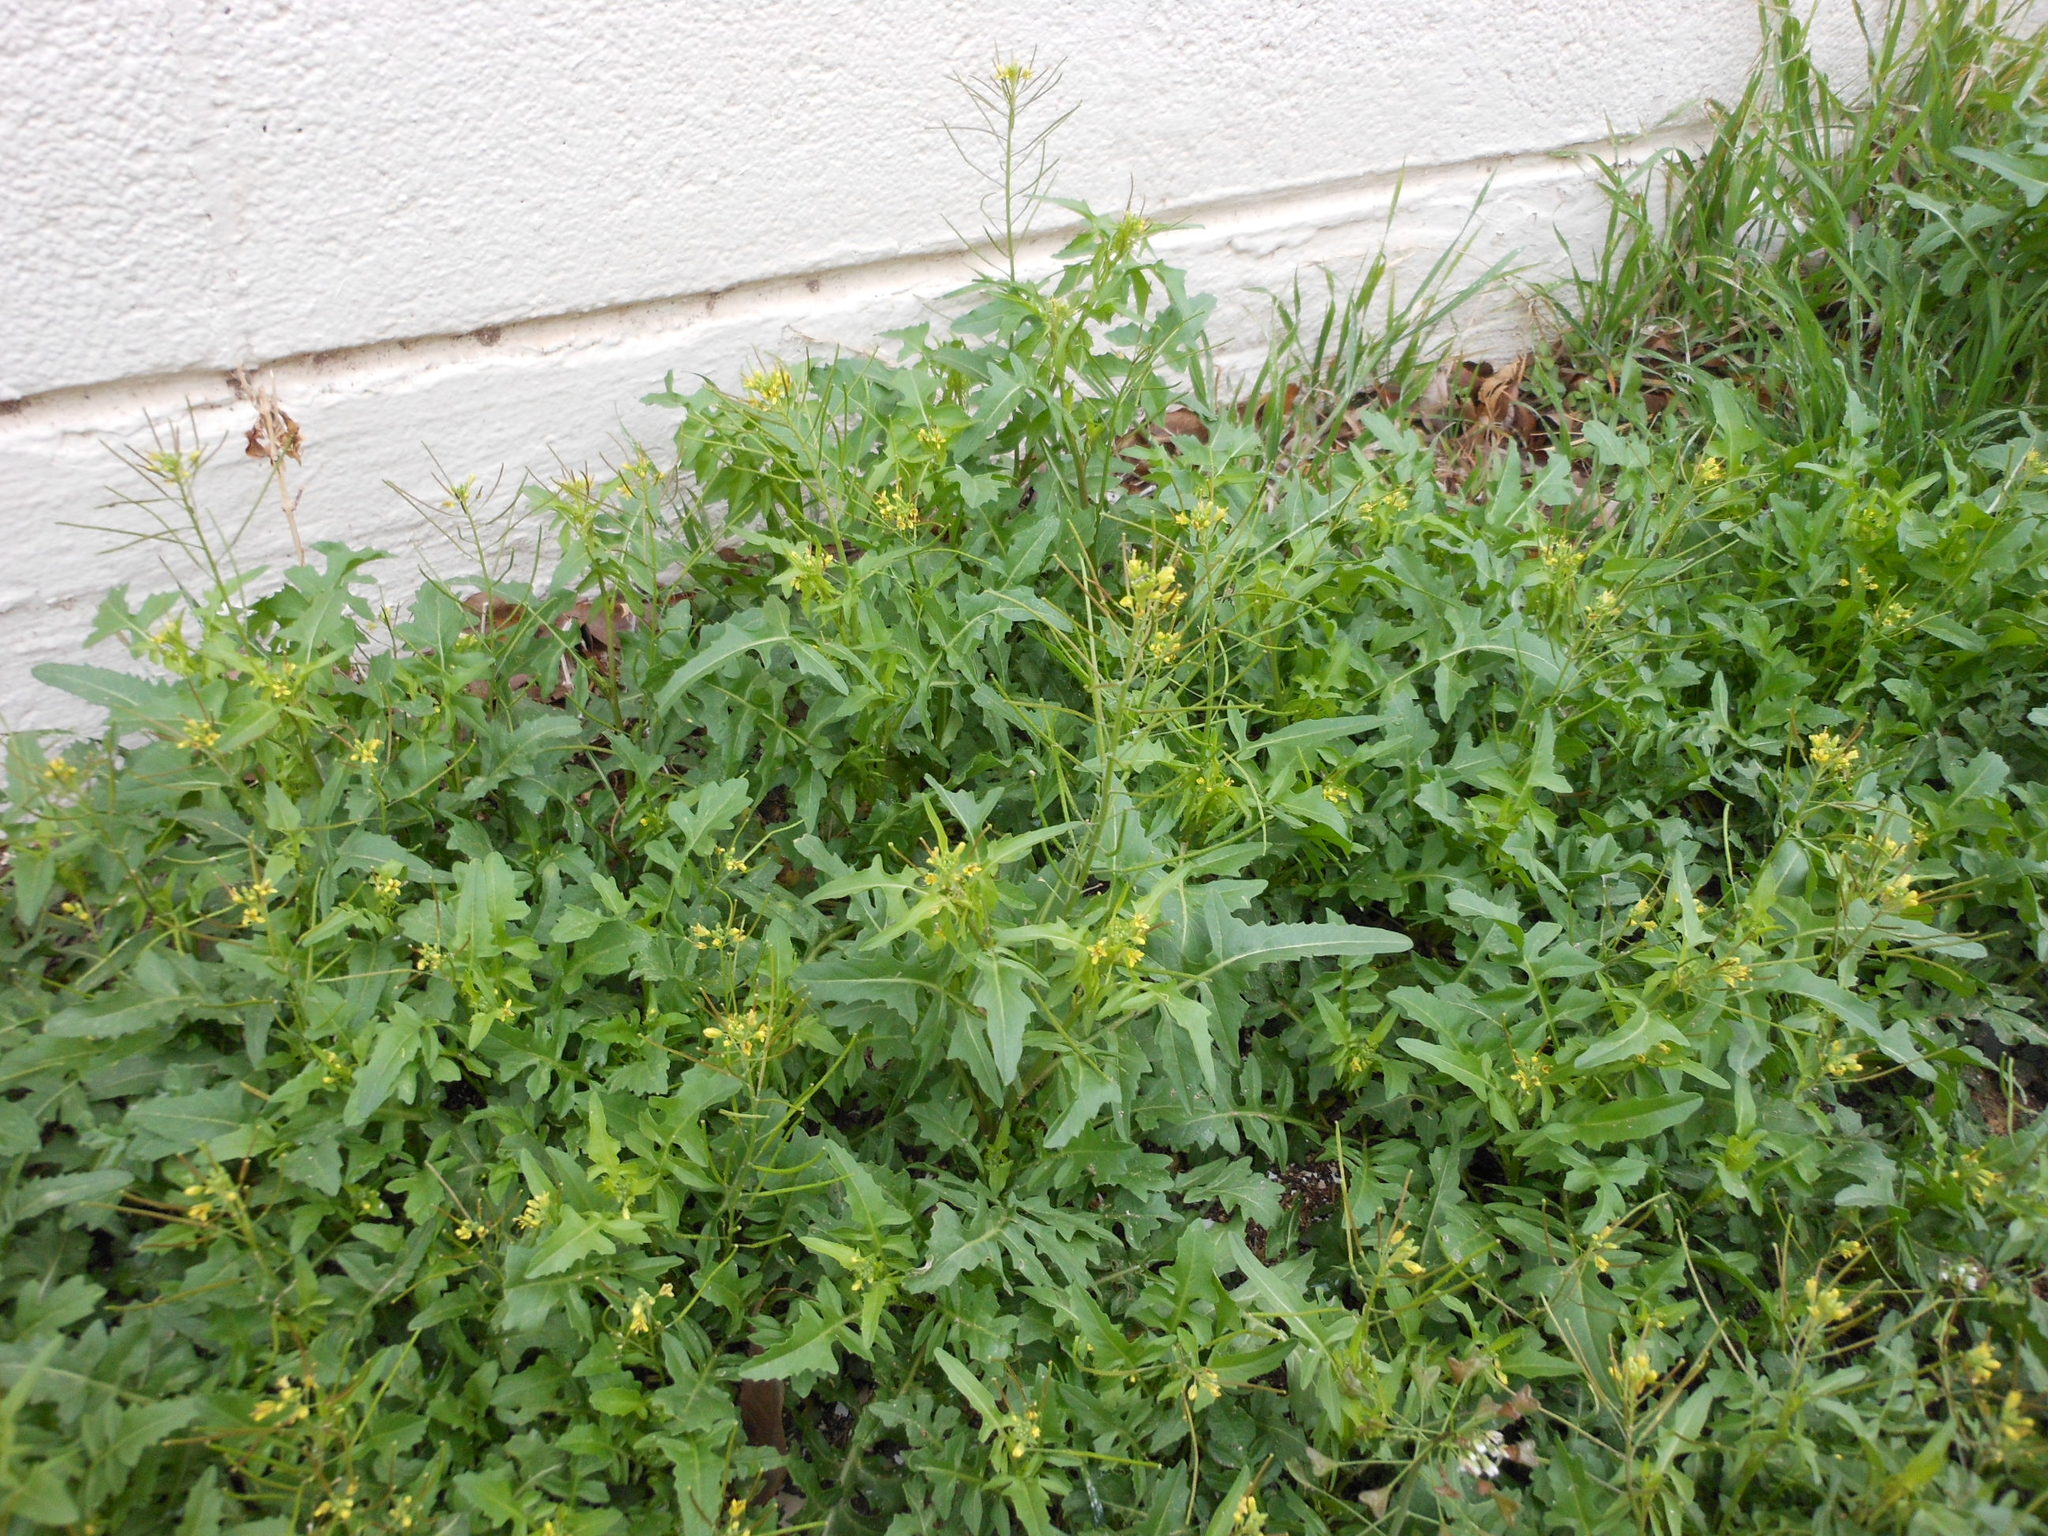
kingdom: Plantae
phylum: Tracheophyta
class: Magnoliopsida
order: Brassicales
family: Brassicaceae
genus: Sisymbrium
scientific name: Sisymbrium irio
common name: London rocket
